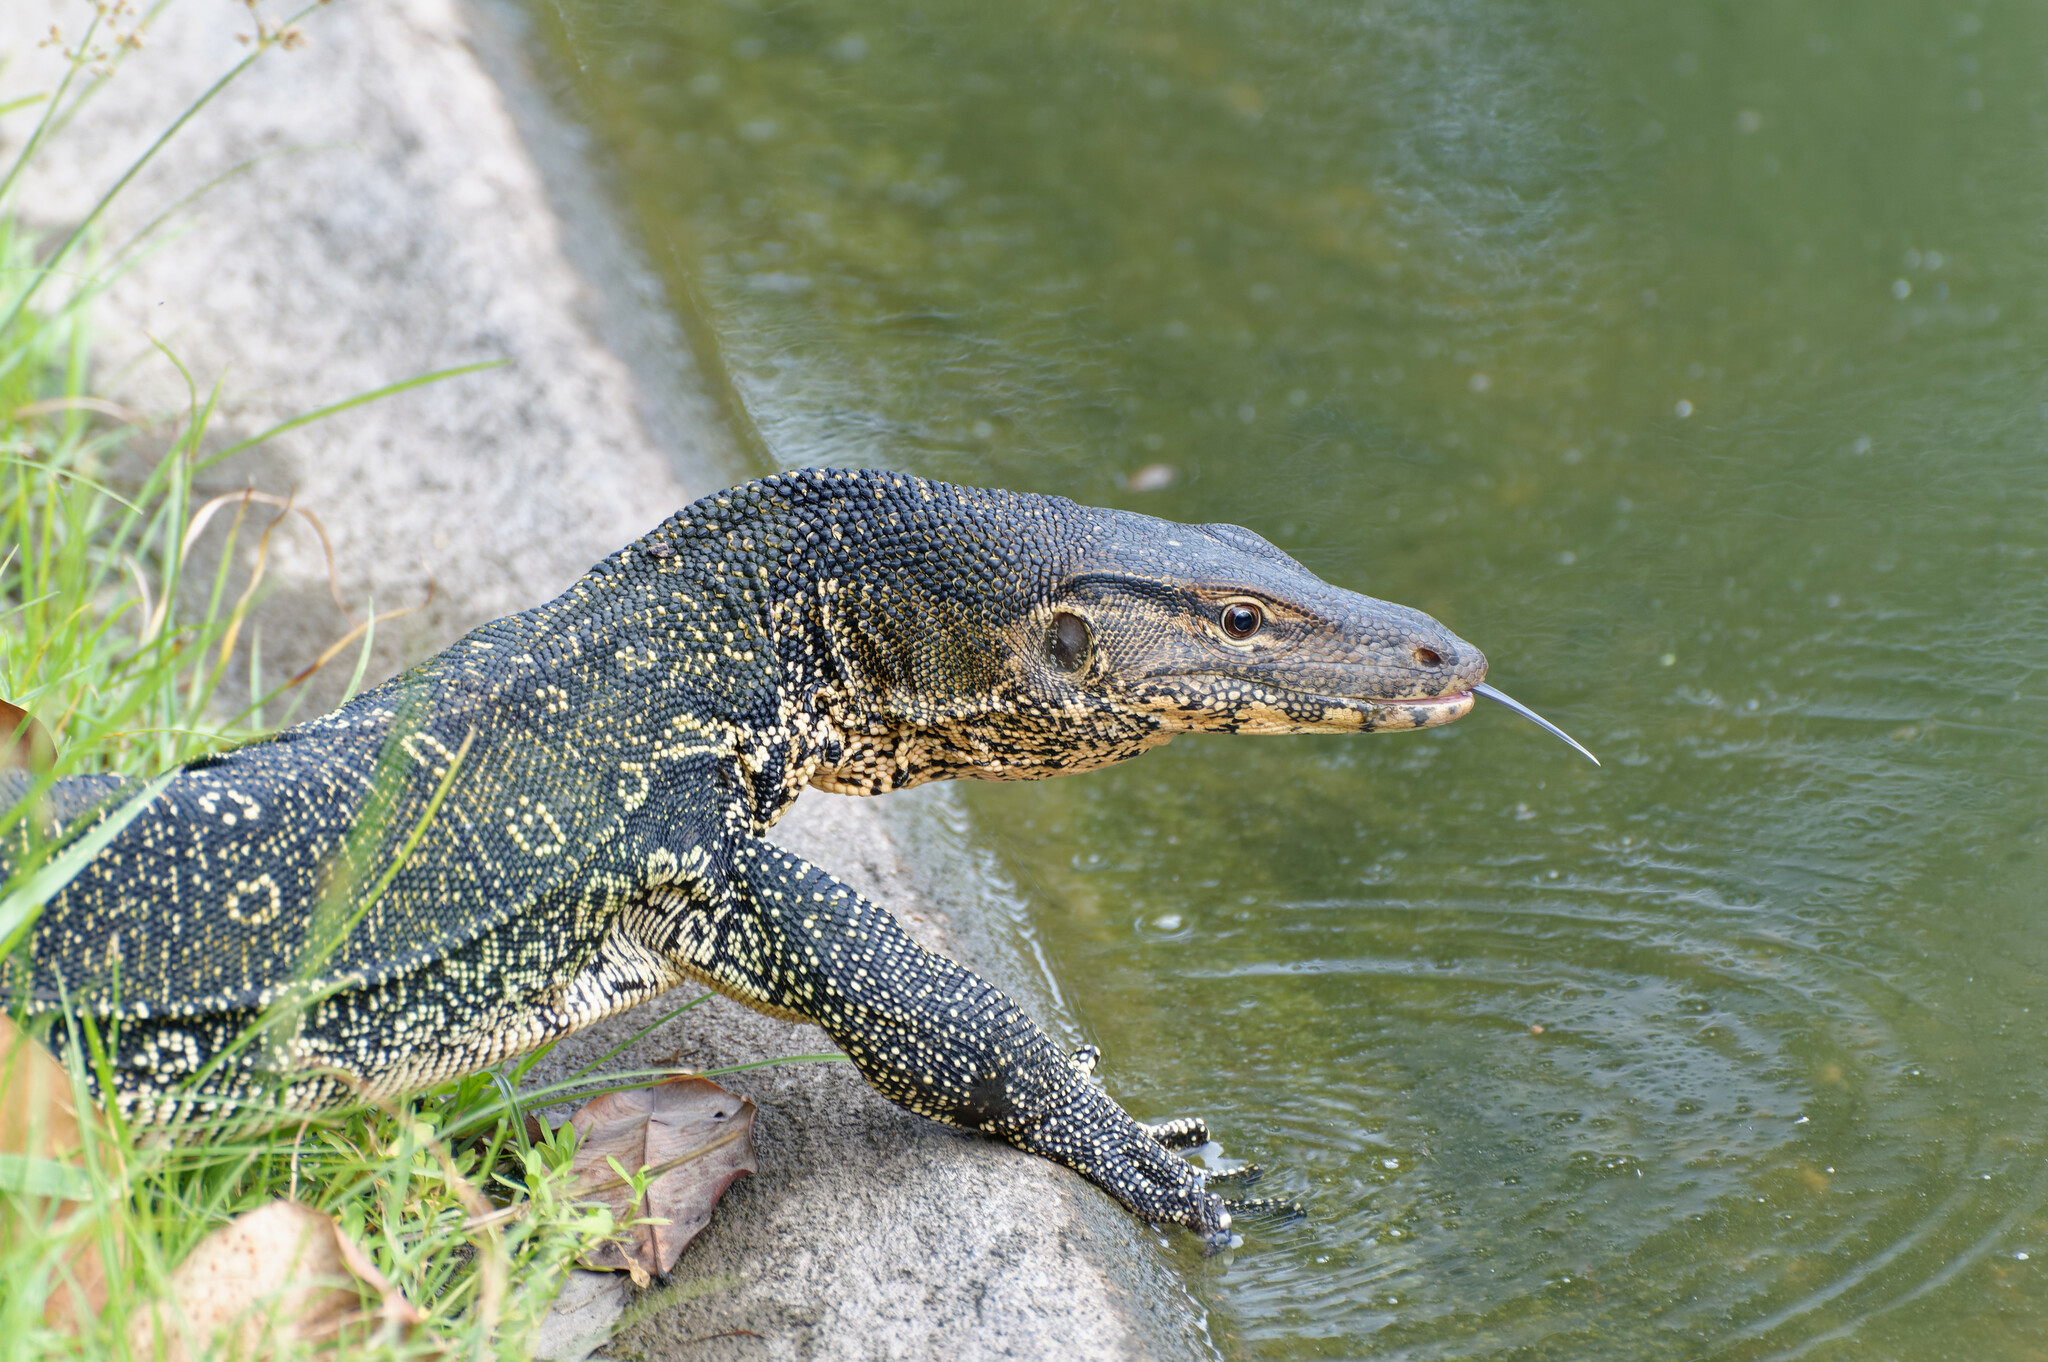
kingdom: Animalia
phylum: Chordata
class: Squamata
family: Varanidae
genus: Varanus
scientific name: Varanus salvator
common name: Common water monitor
